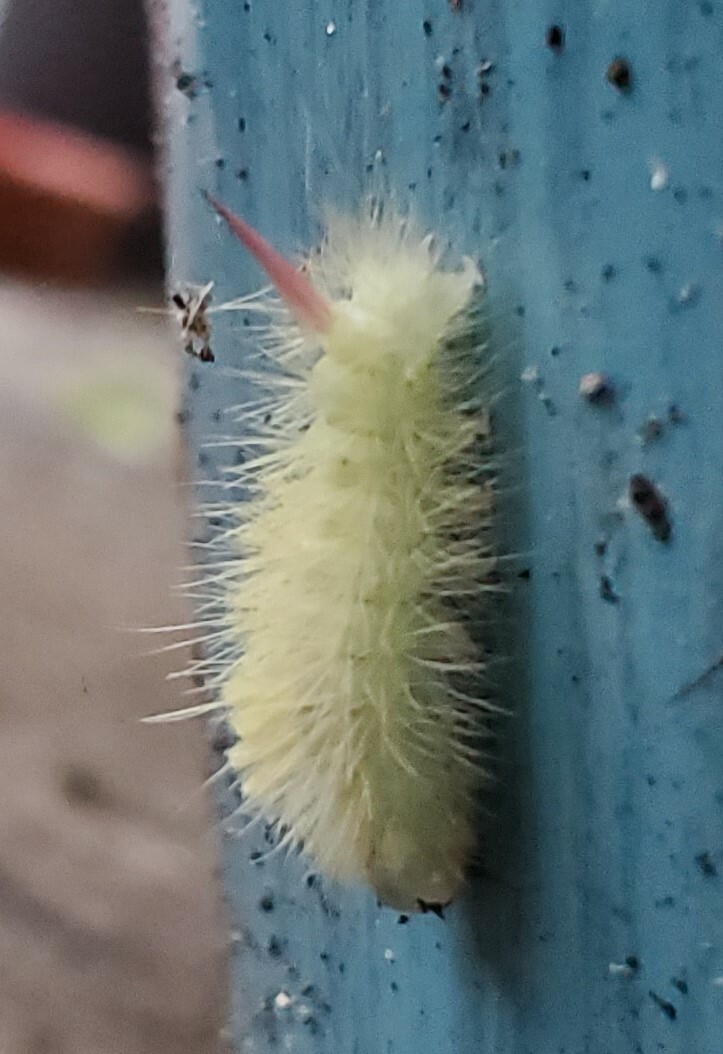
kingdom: Animalia
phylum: Arthropoda
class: Insecta
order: Lepidoptera
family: Erebidae
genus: Calliteara
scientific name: Calliteara pudibunda
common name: Pale tussock
